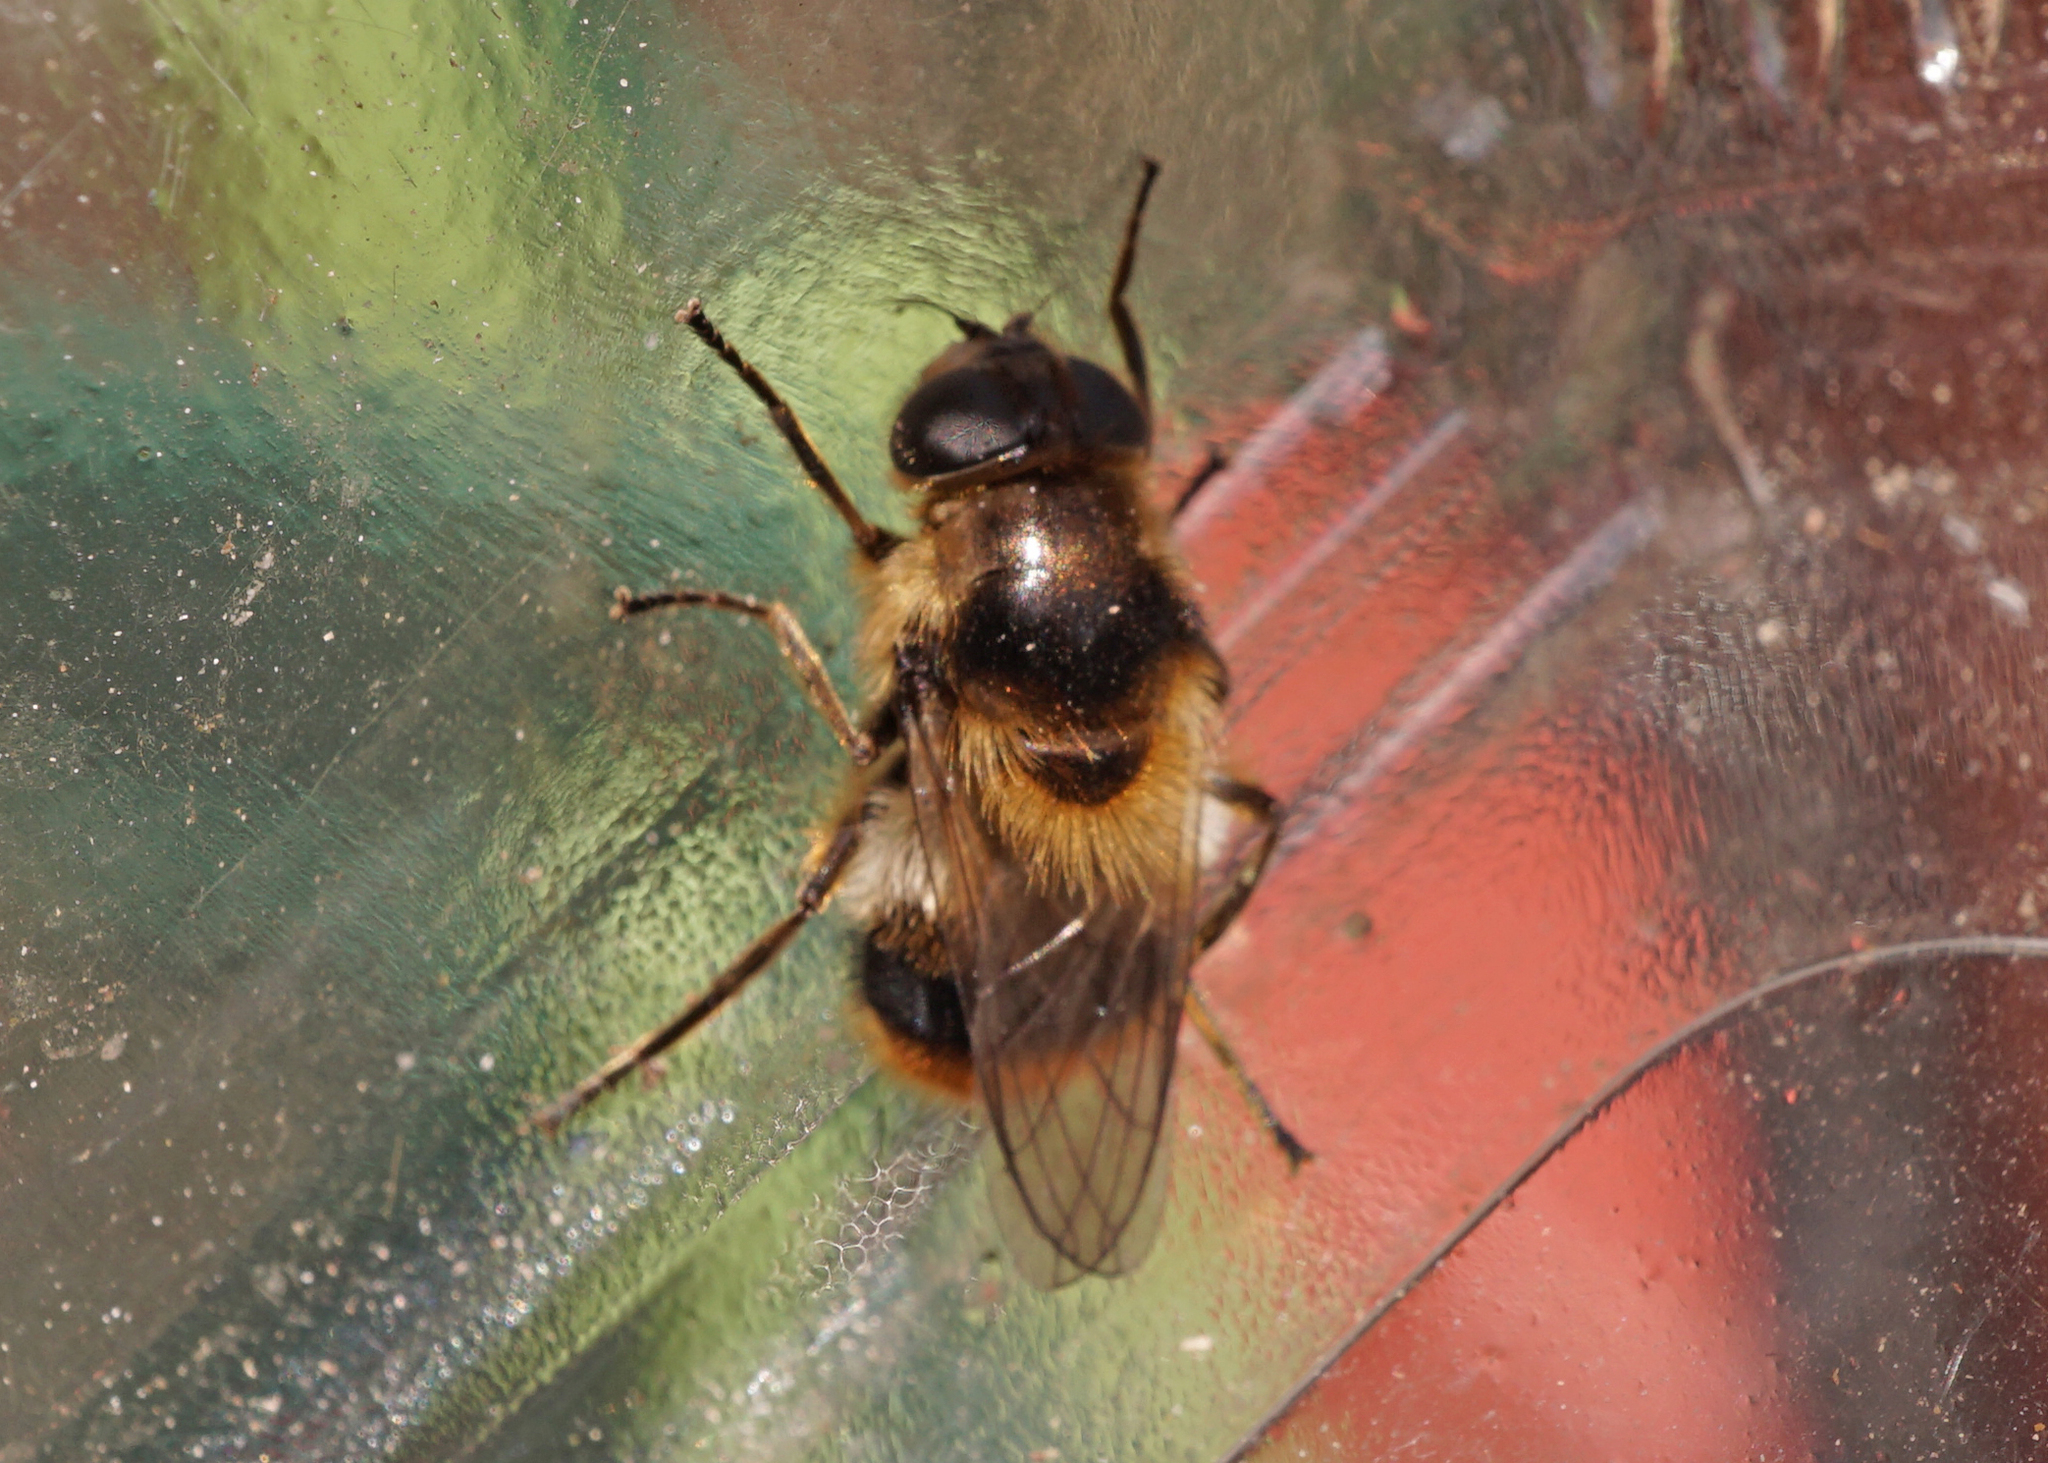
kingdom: Animalia
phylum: Arthropoda
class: Insecta
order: Diptera
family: Syrphidae
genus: Cheilosia
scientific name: Cheilosia illustrata
